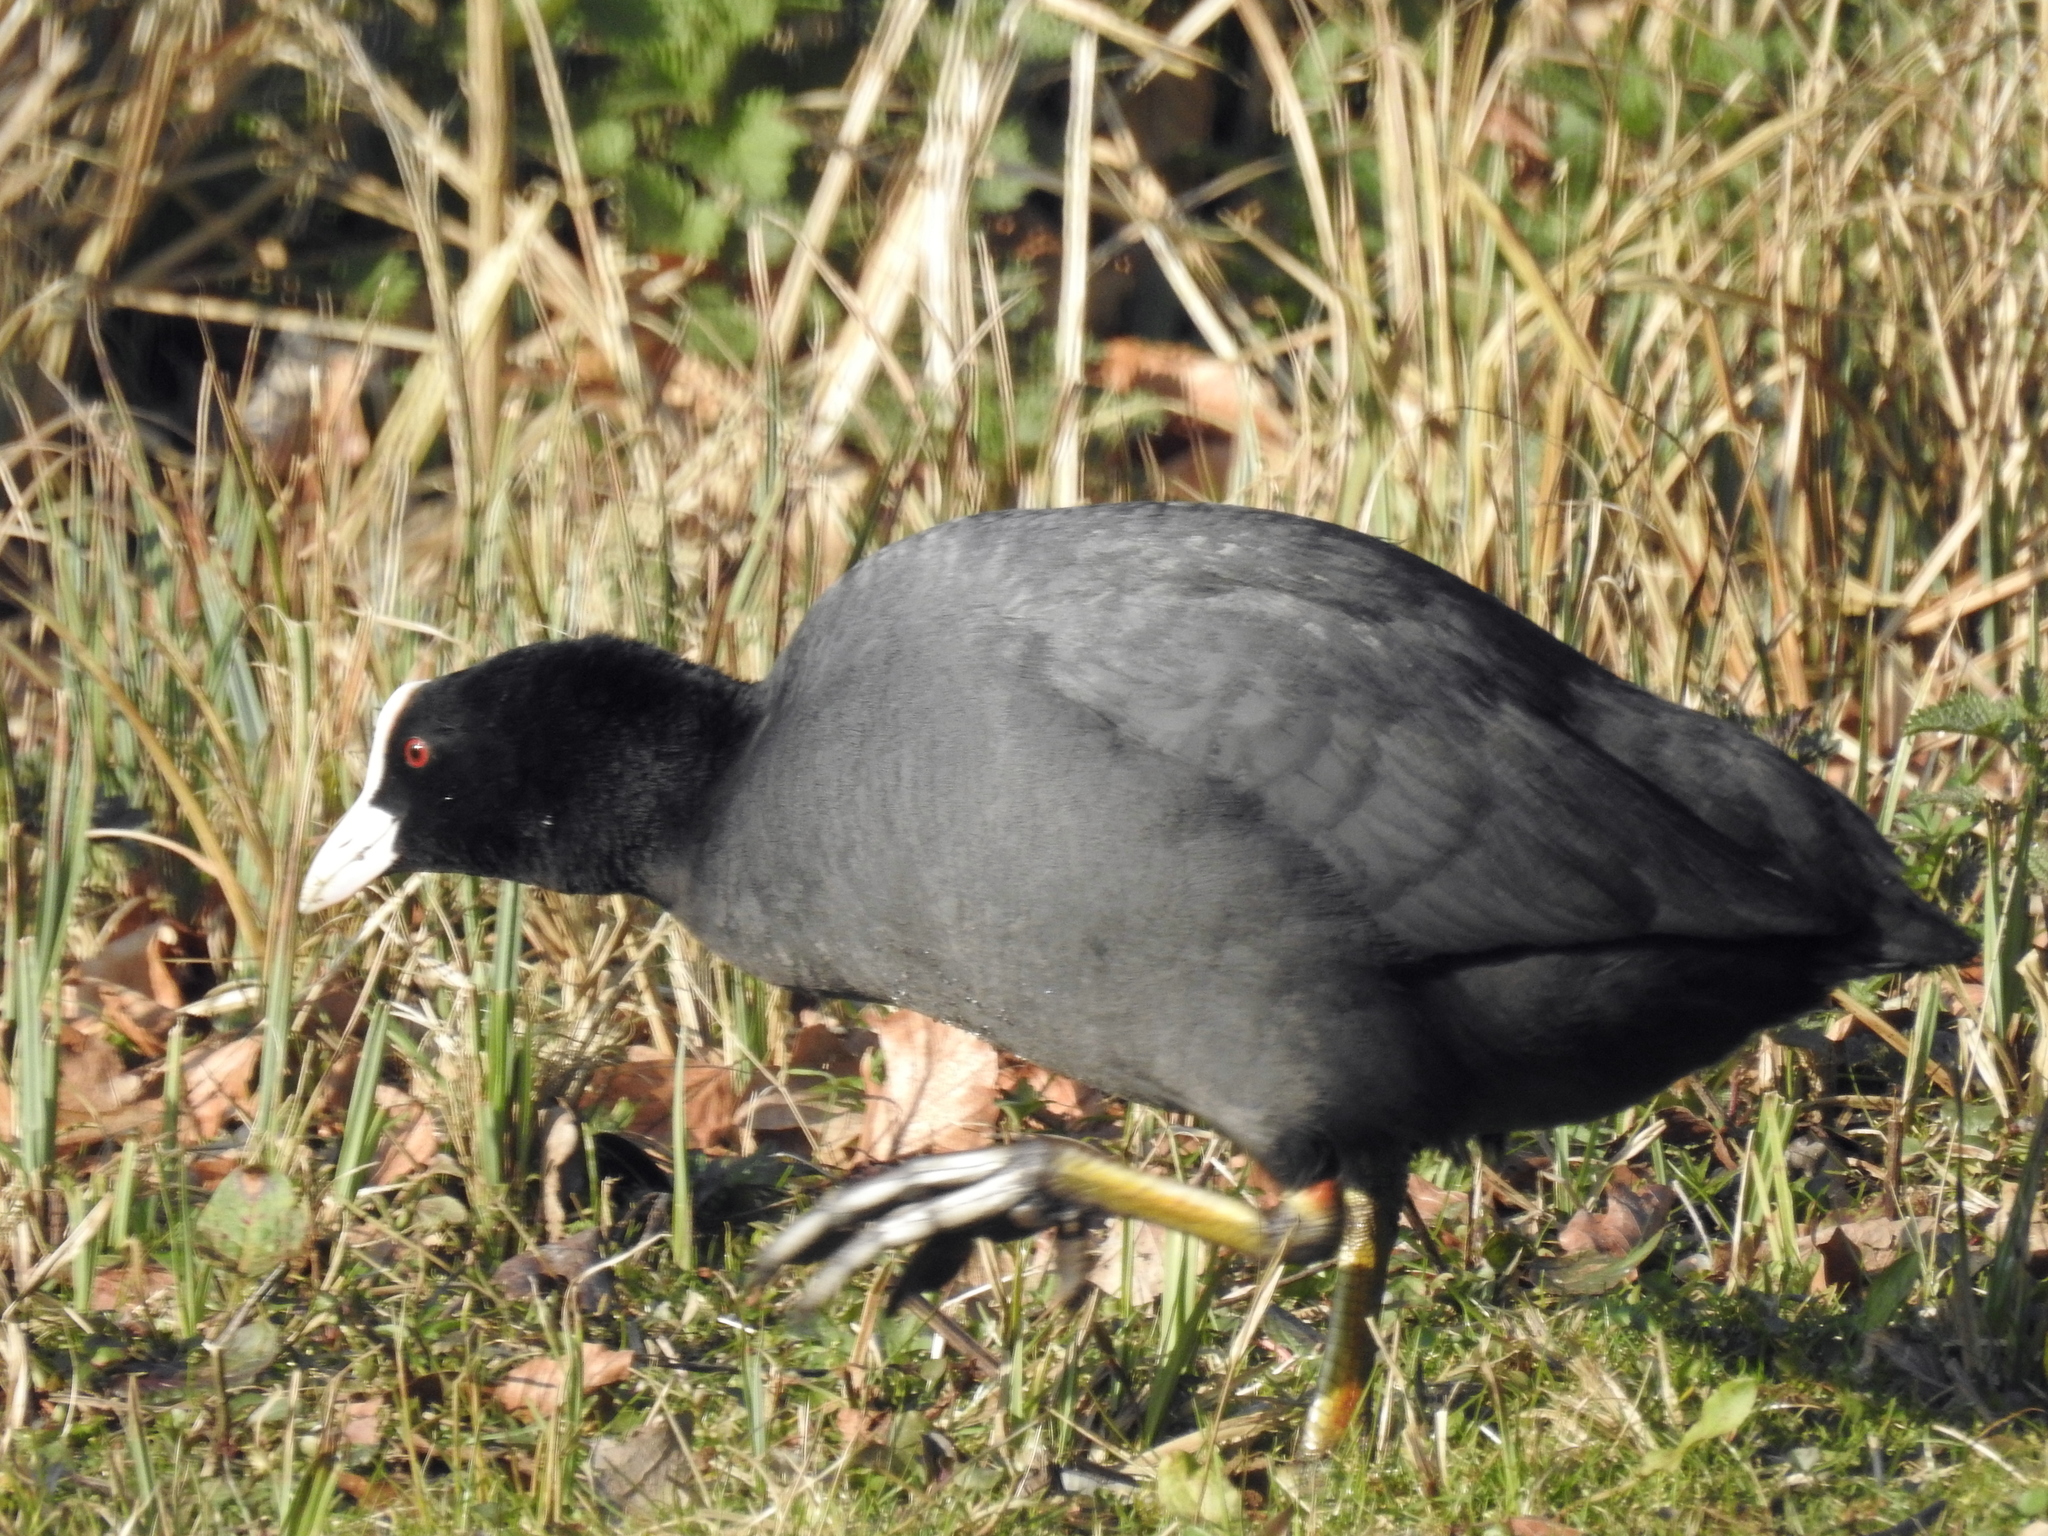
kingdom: Animalia
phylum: Chordata
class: Aves
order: Gruiformes
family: Rallidae
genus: Fulica
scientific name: Fulica atra
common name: Eurasian coot
